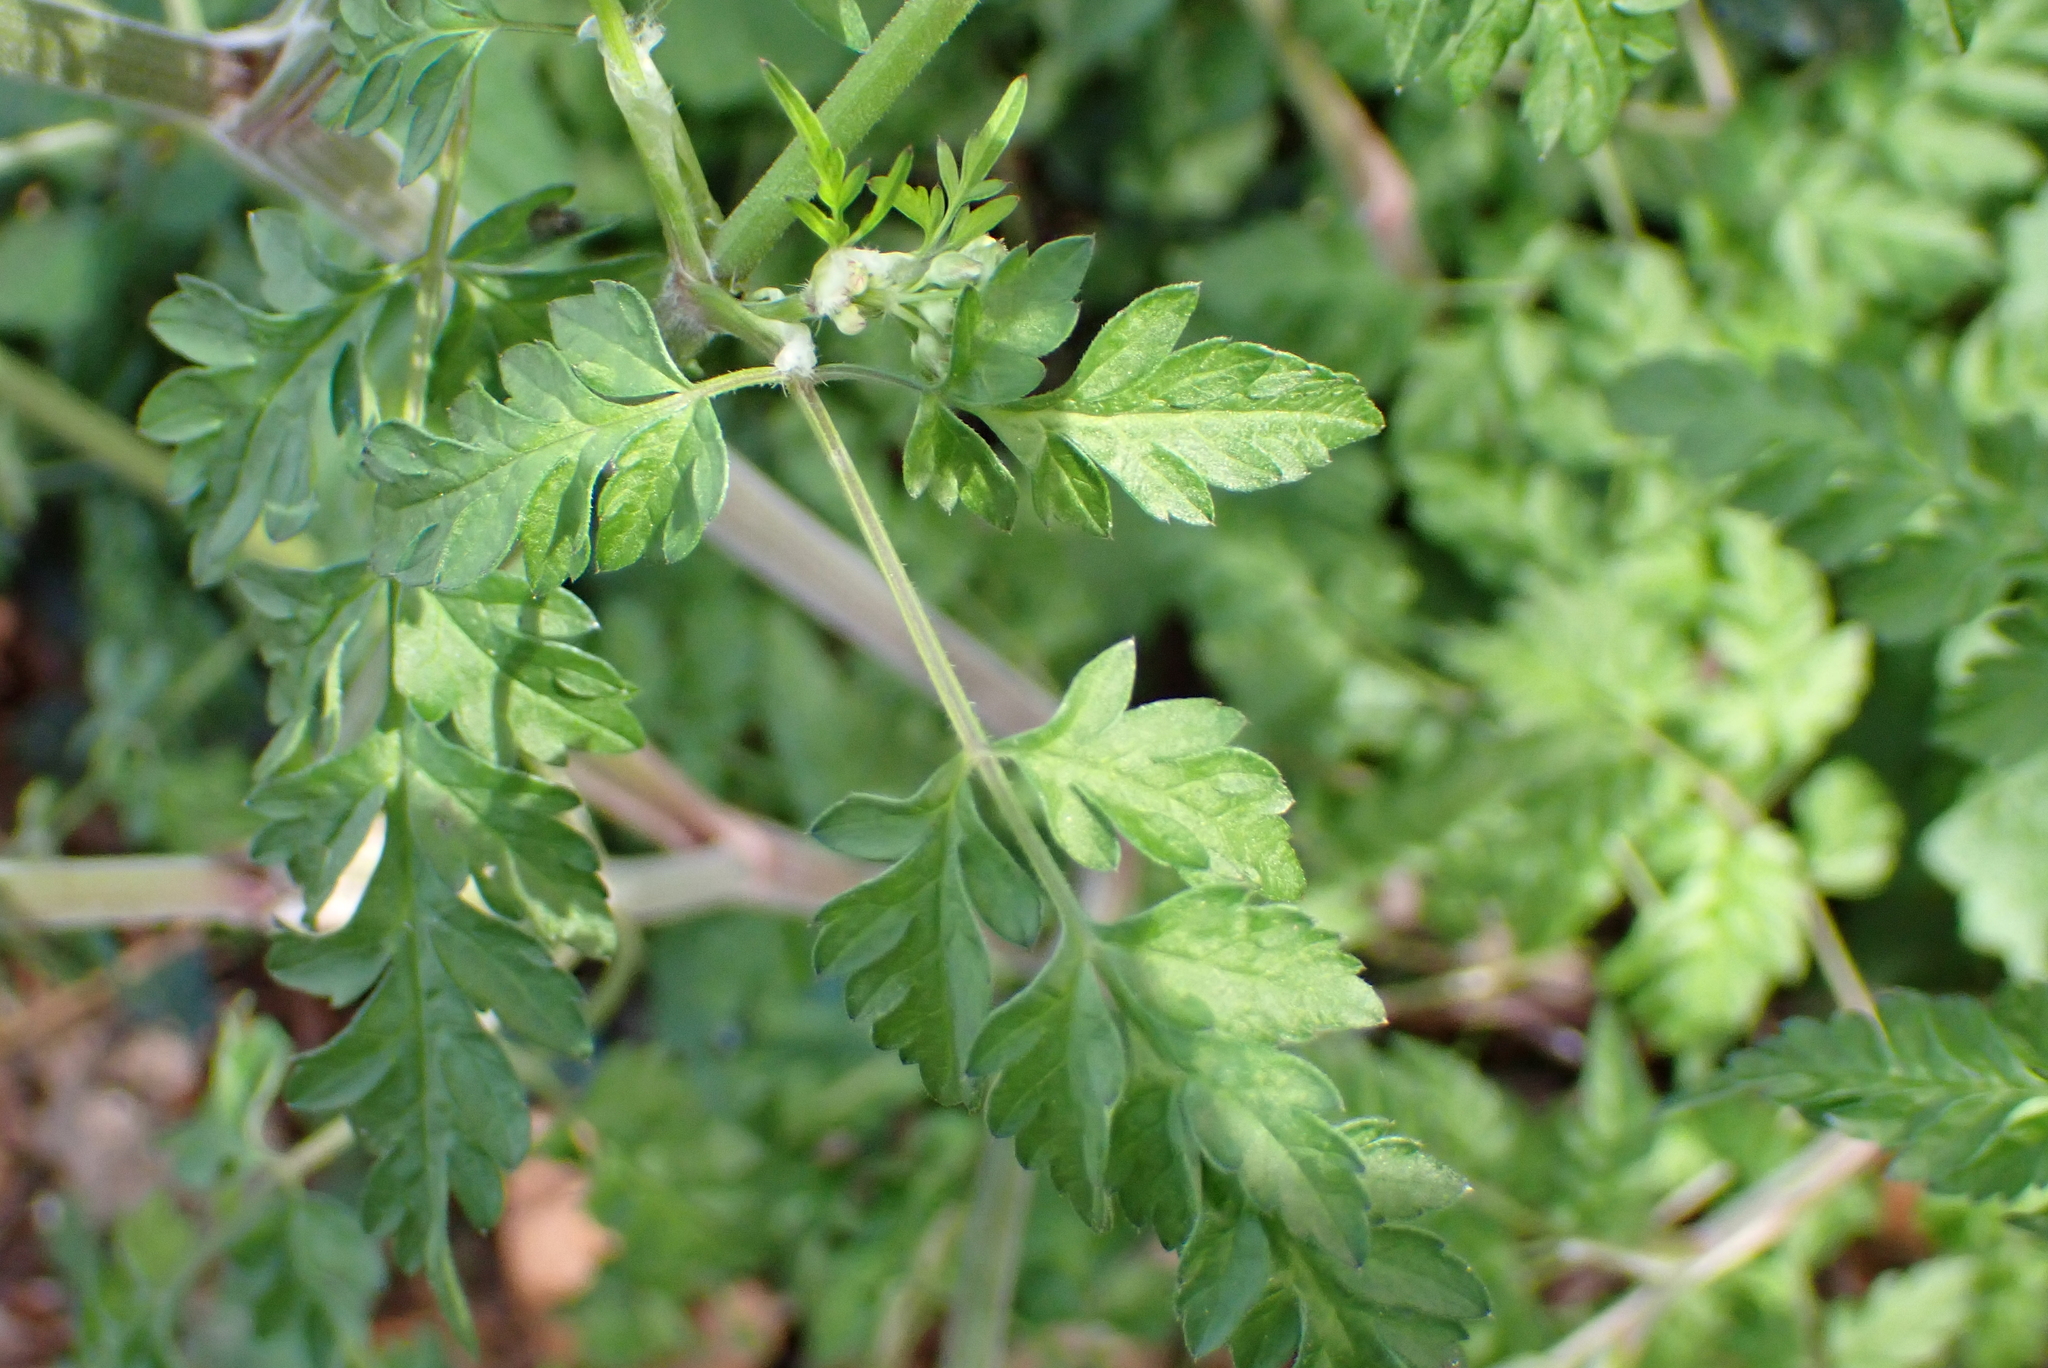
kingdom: Plantae
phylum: Tracheophyta
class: Magnoliopsida
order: Apiales
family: Apiaceae
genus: Anthriscus
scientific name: Anthriscus sylvestris
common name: Cow parsley
